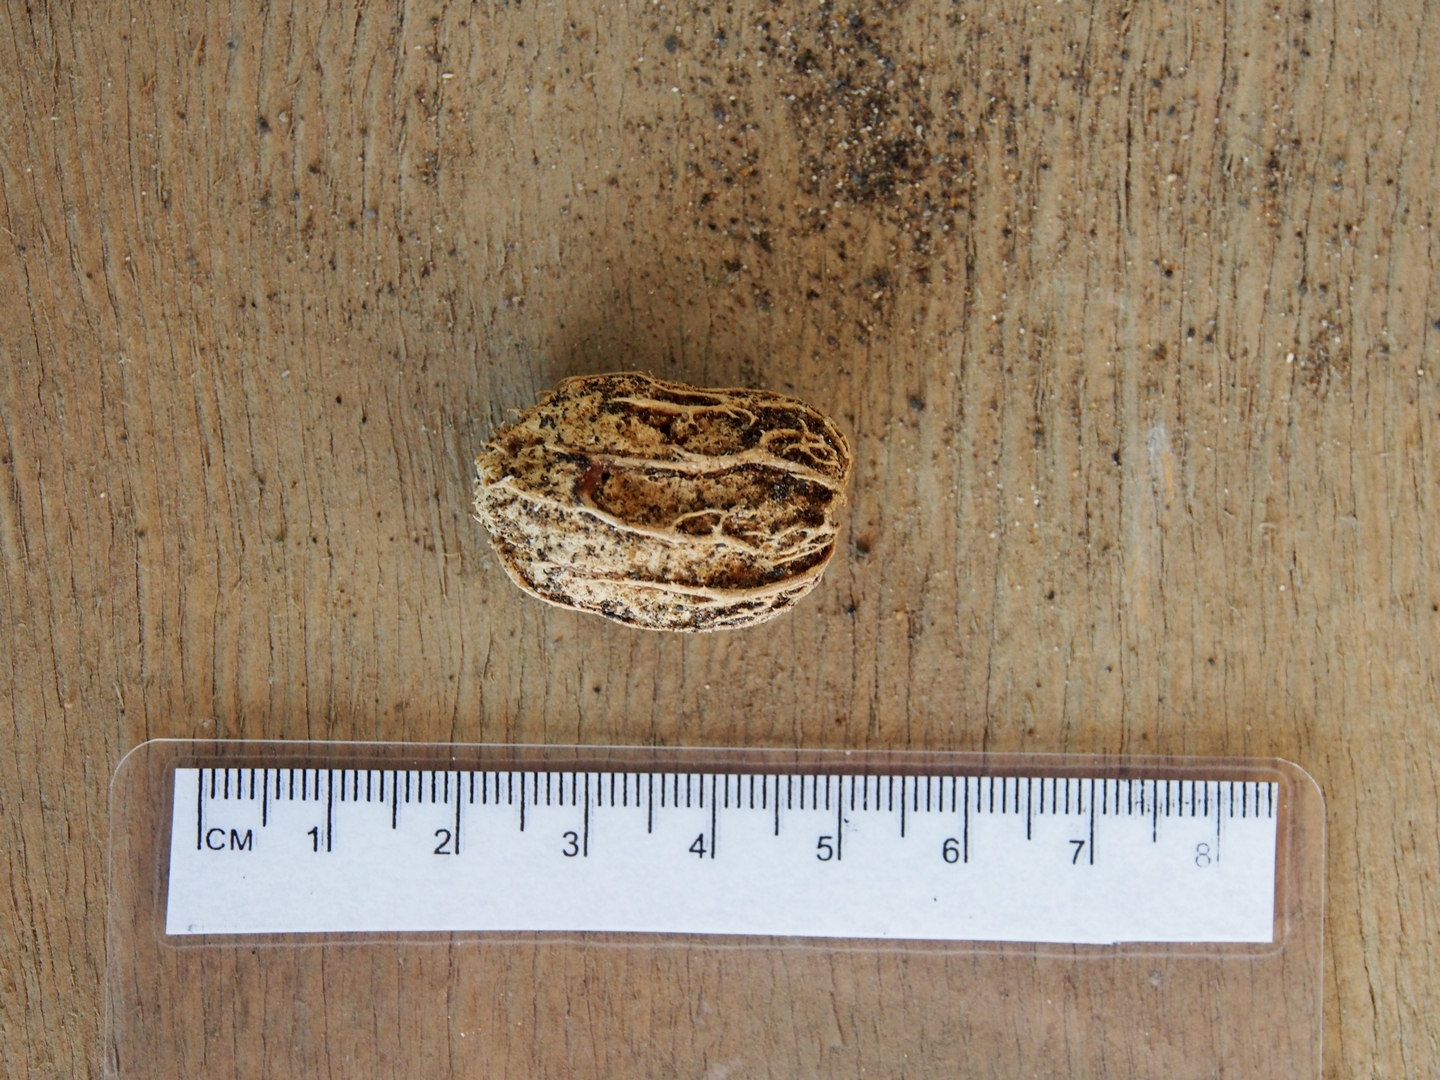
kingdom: Plantae
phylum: Tracheophyta
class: Magnoliopsida
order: Sapindales
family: Anacardiaceae
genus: Spondias
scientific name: Spondias mombin
